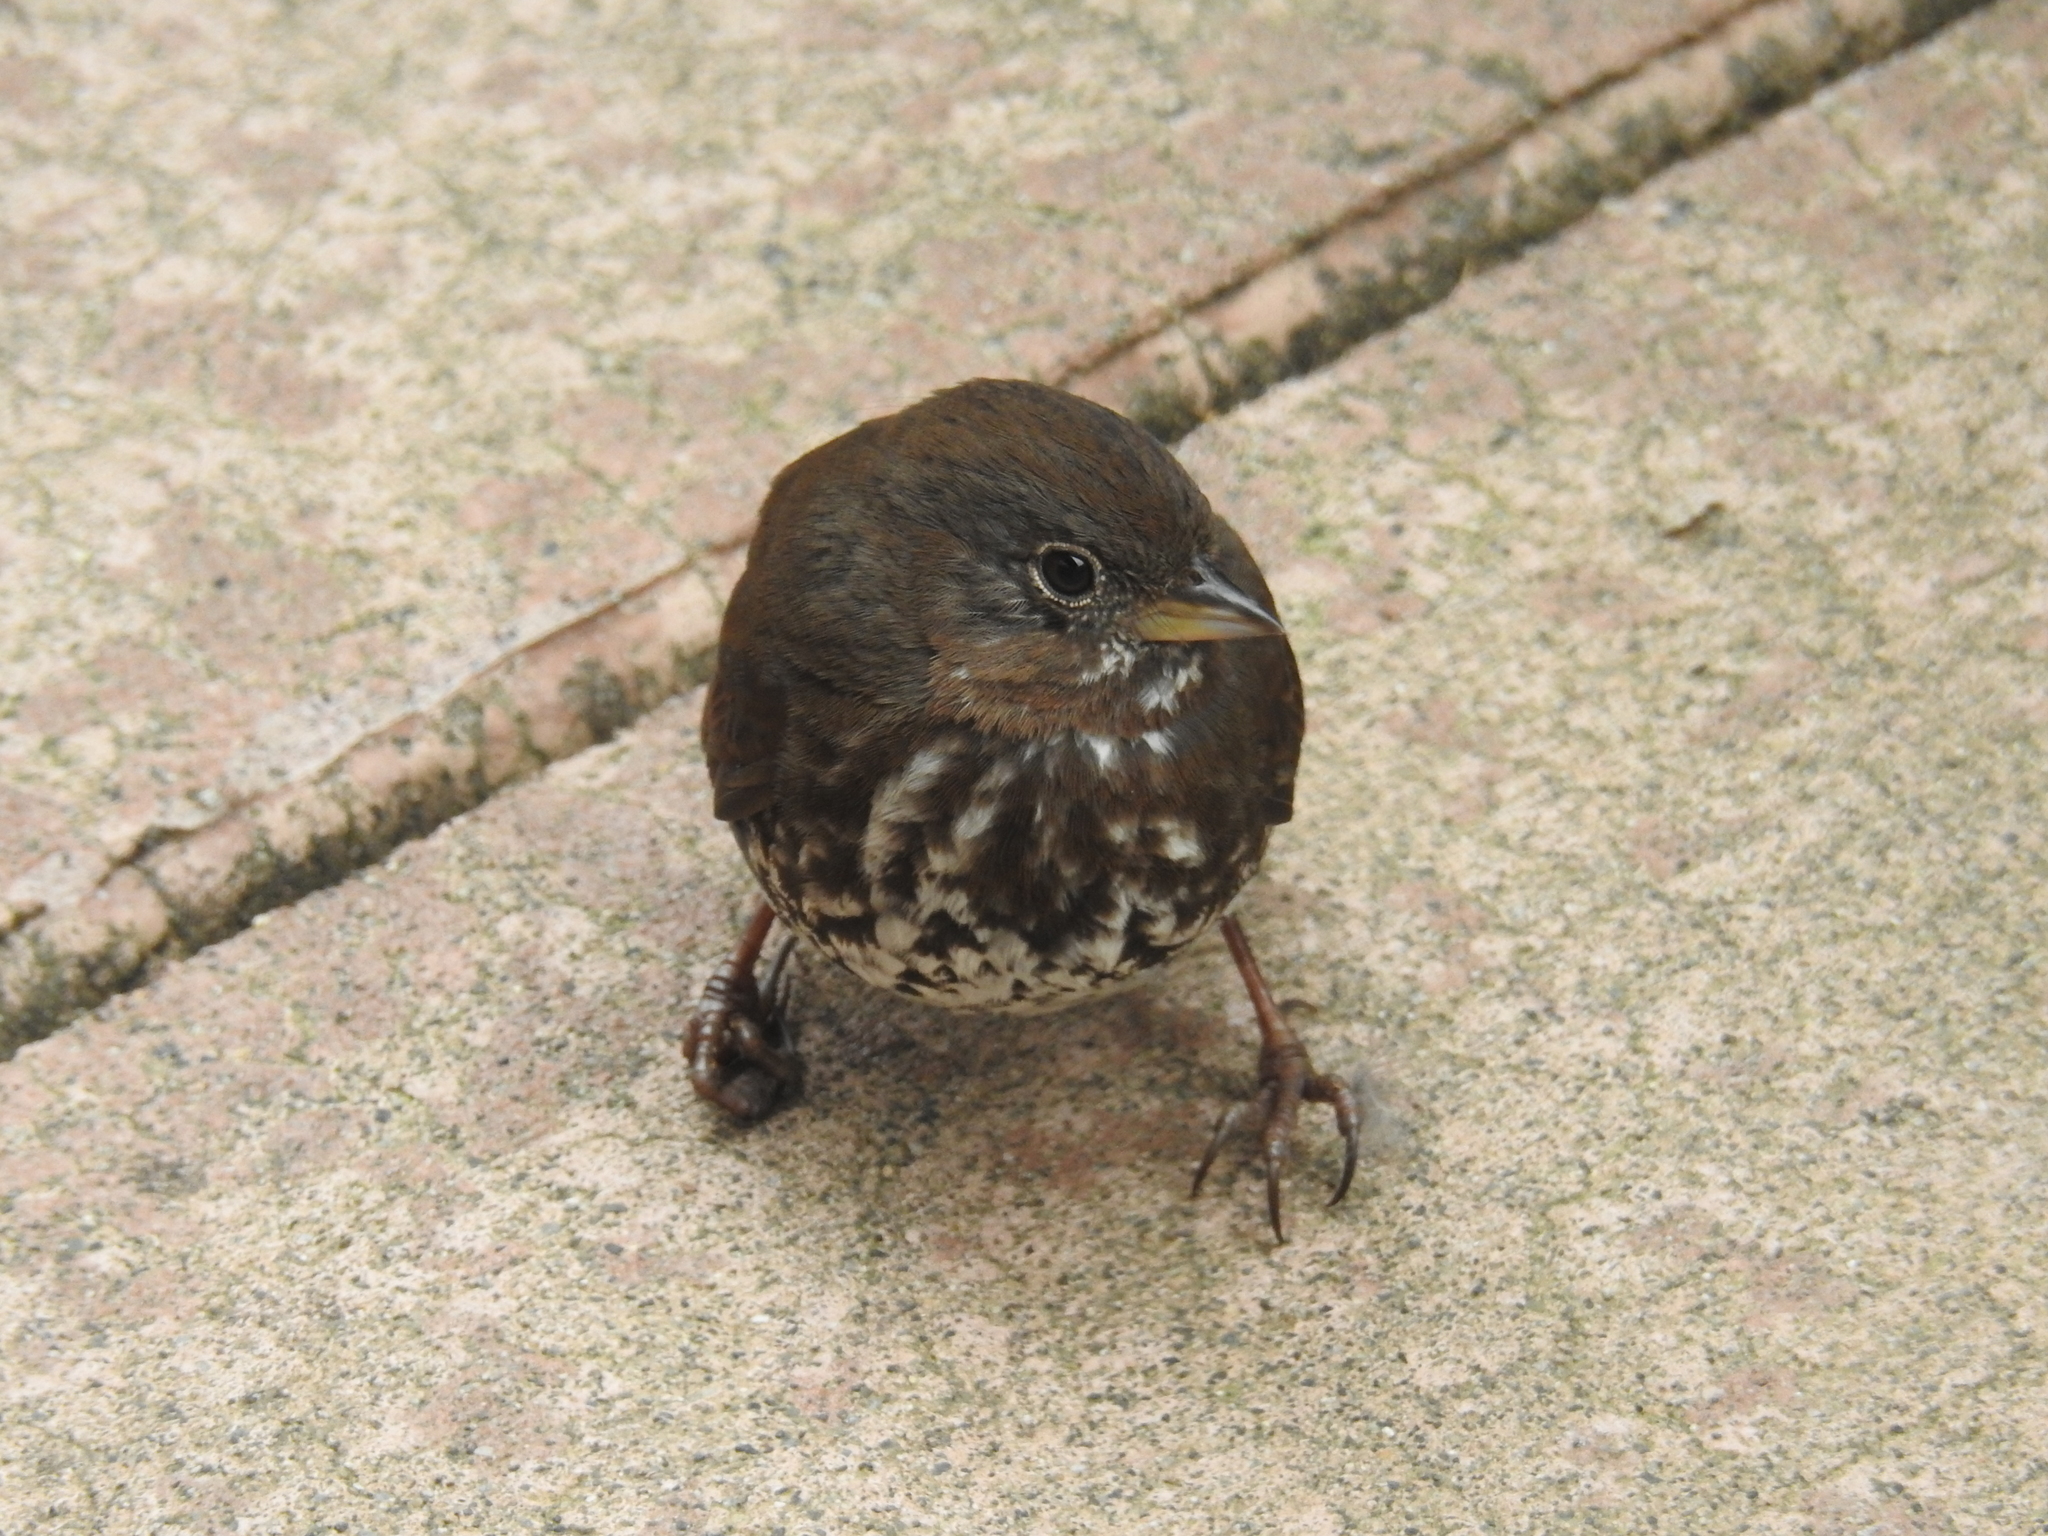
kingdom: Animalia
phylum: Chordata
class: Aves
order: Passeriformes
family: Passerellidae
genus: Passerella
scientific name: Passerella iliaca
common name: Fox sparrow
